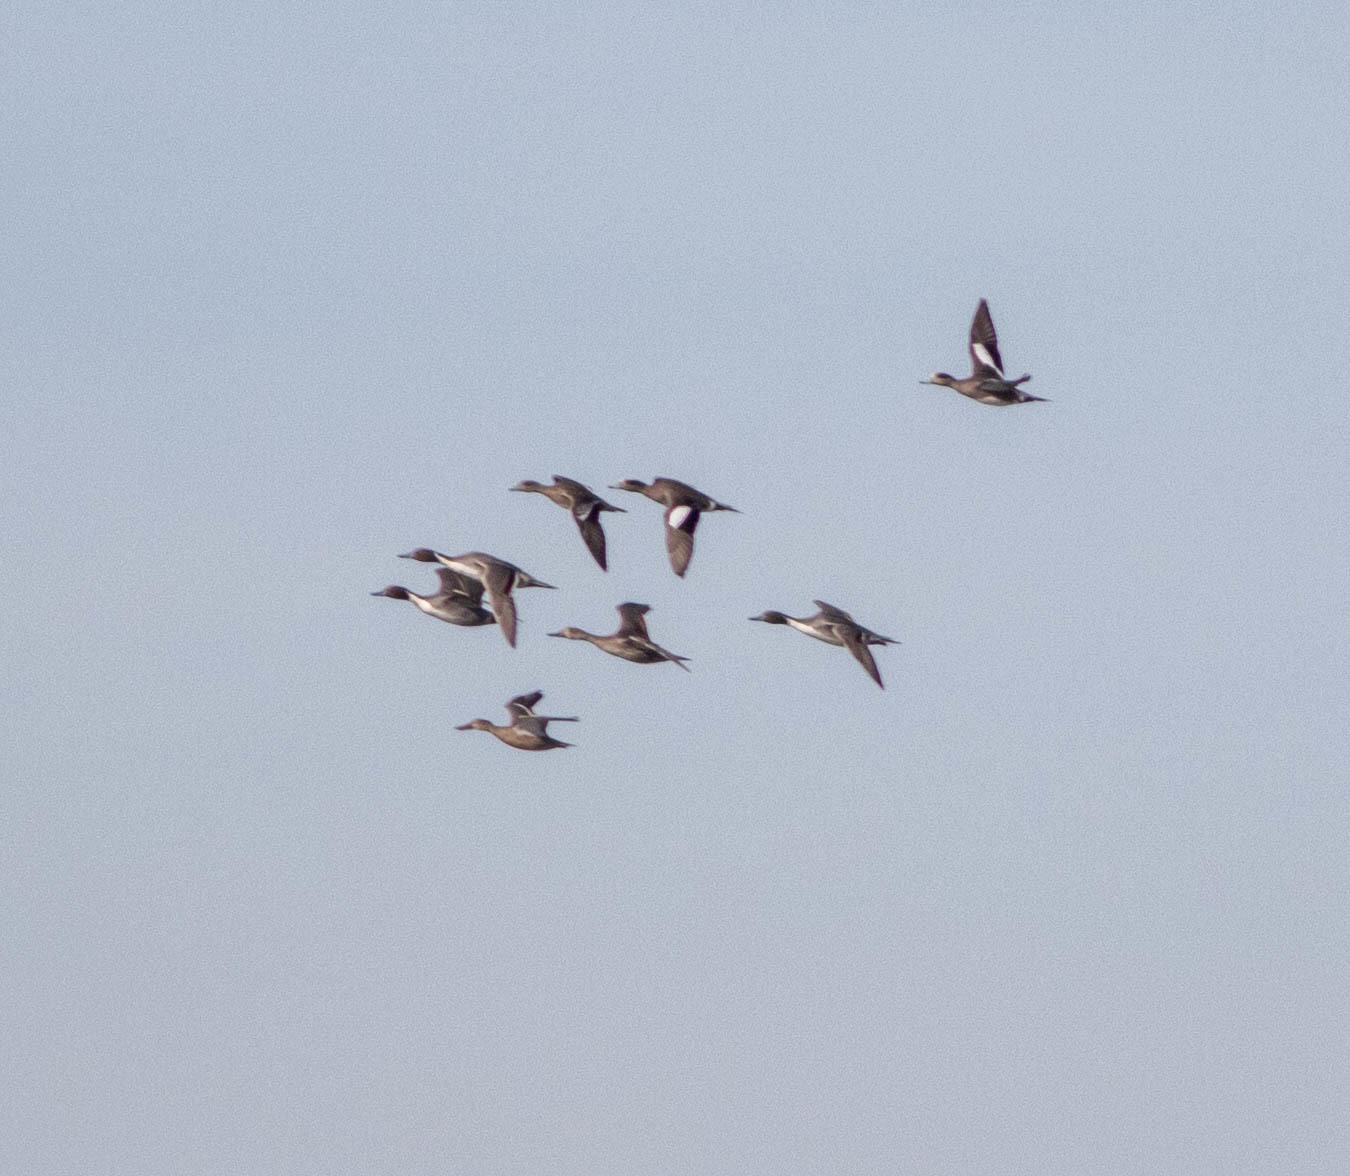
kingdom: Animalia
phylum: Chordata
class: Aves
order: Anseriformes
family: Anatidae
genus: Mareca
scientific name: Mareca americana
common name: American wigeon
